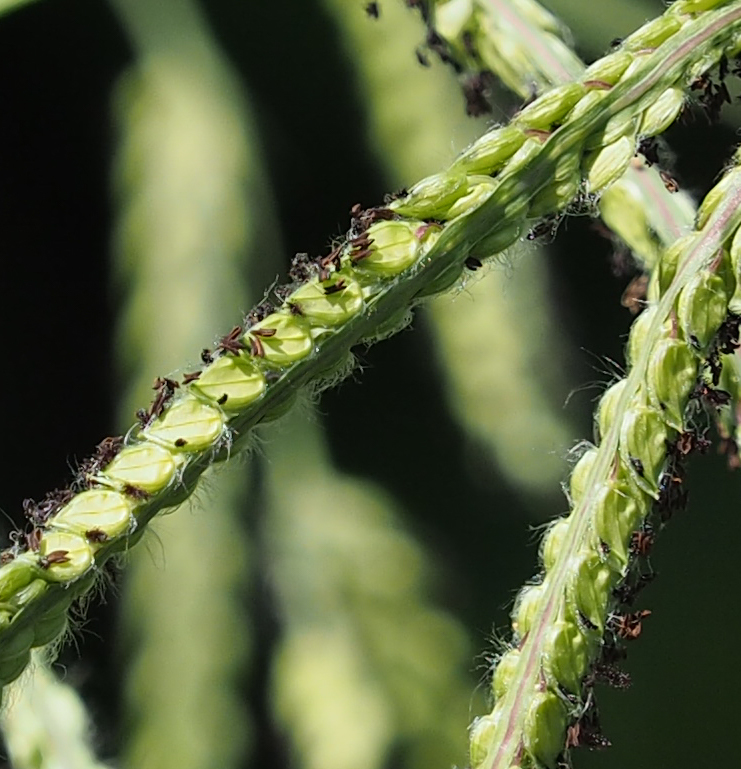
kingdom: Plantae
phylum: Tracheophyta
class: Liliopsida
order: Poales
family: Poaceae
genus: Paspalum
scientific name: Paspalum dilatatum
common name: Dallisgrass
